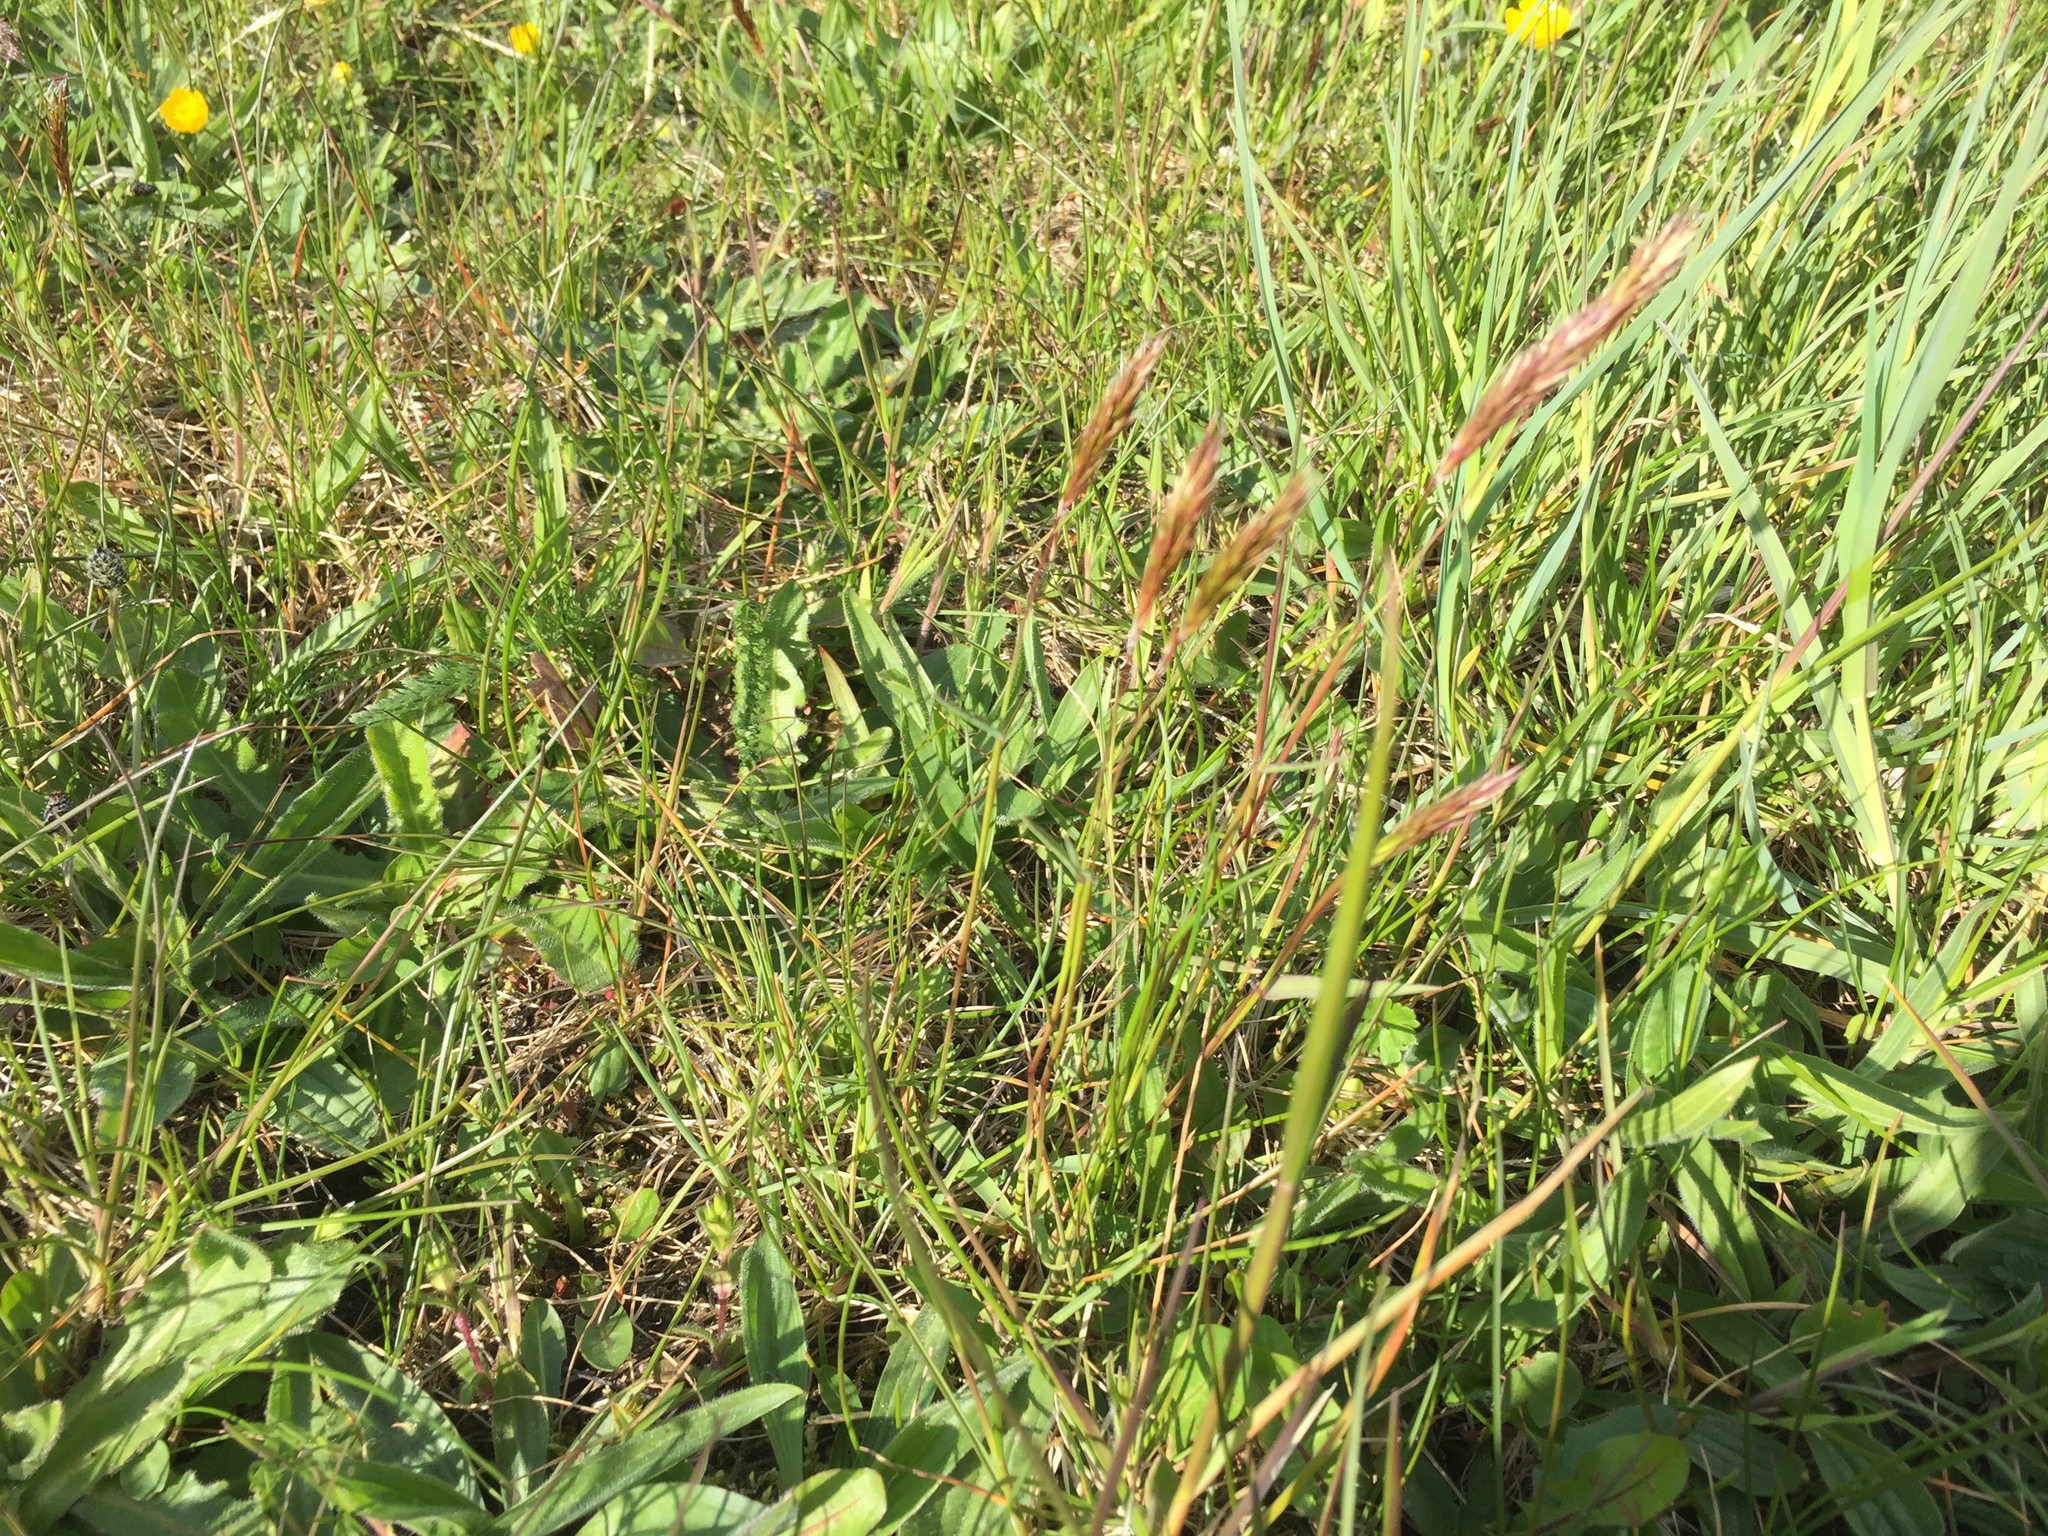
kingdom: Plantae
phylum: Tracheophyta
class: Liliopsida
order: Poales
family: Poaceae
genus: Anthoxanthum
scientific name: Anthoxanthum odoratum
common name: Sweet vernalgrass
